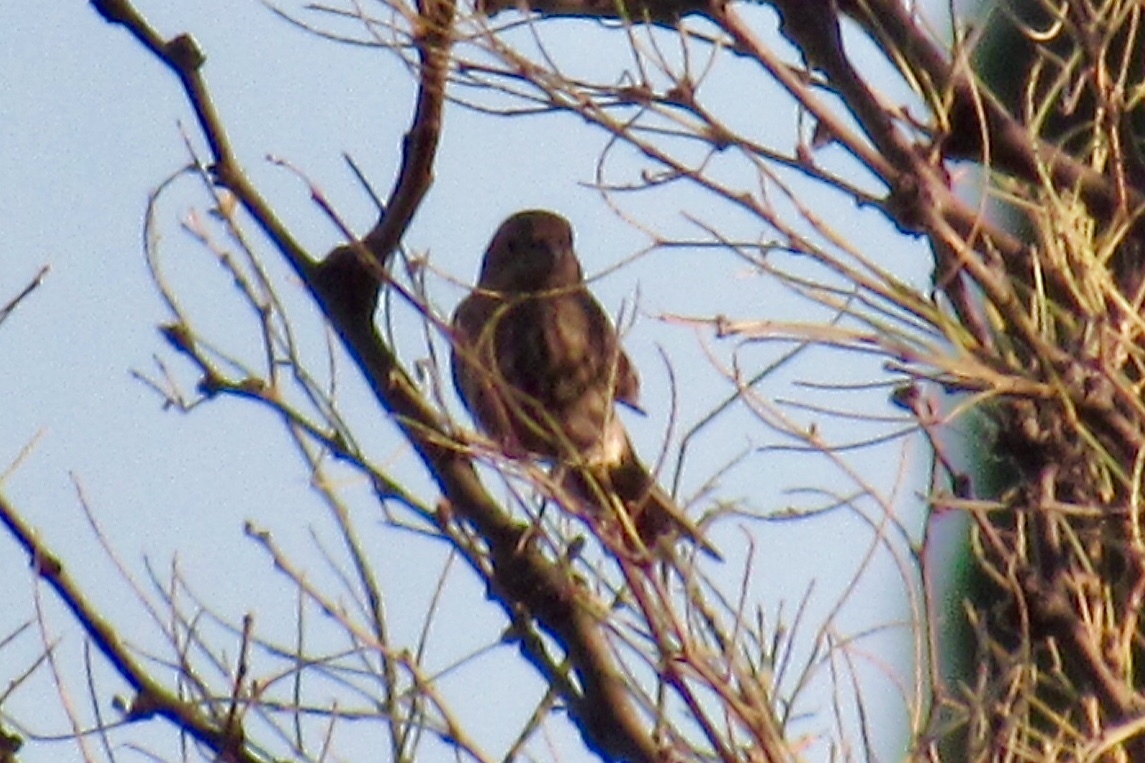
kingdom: Animalia
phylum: Chordata
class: Aves
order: Passeriformes
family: Fringillidae
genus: Haemorhous
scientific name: Haemorhous mexicanus
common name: House finch
